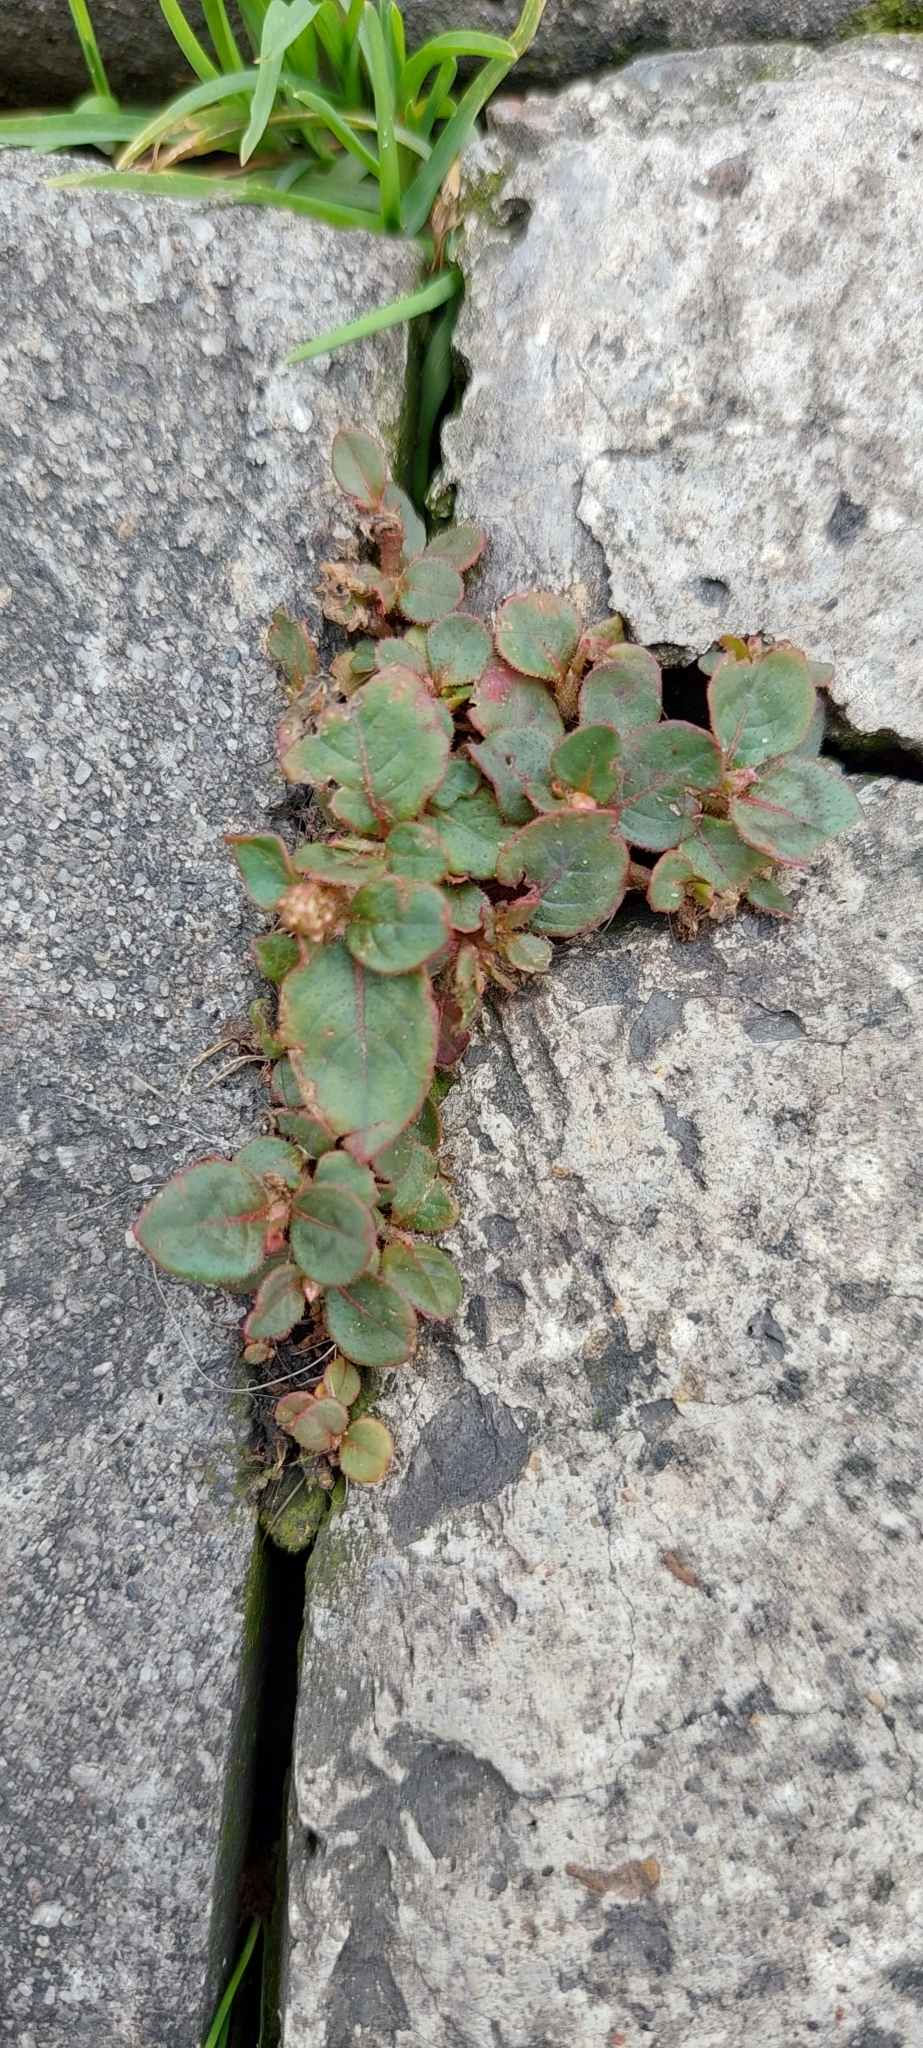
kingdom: Plantae
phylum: Tracheophyta
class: Magnoliopsida
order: Caryophyllales
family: Polygonaceae
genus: Persicaria
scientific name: Persicaria capitata
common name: Pinkhead smartweed
